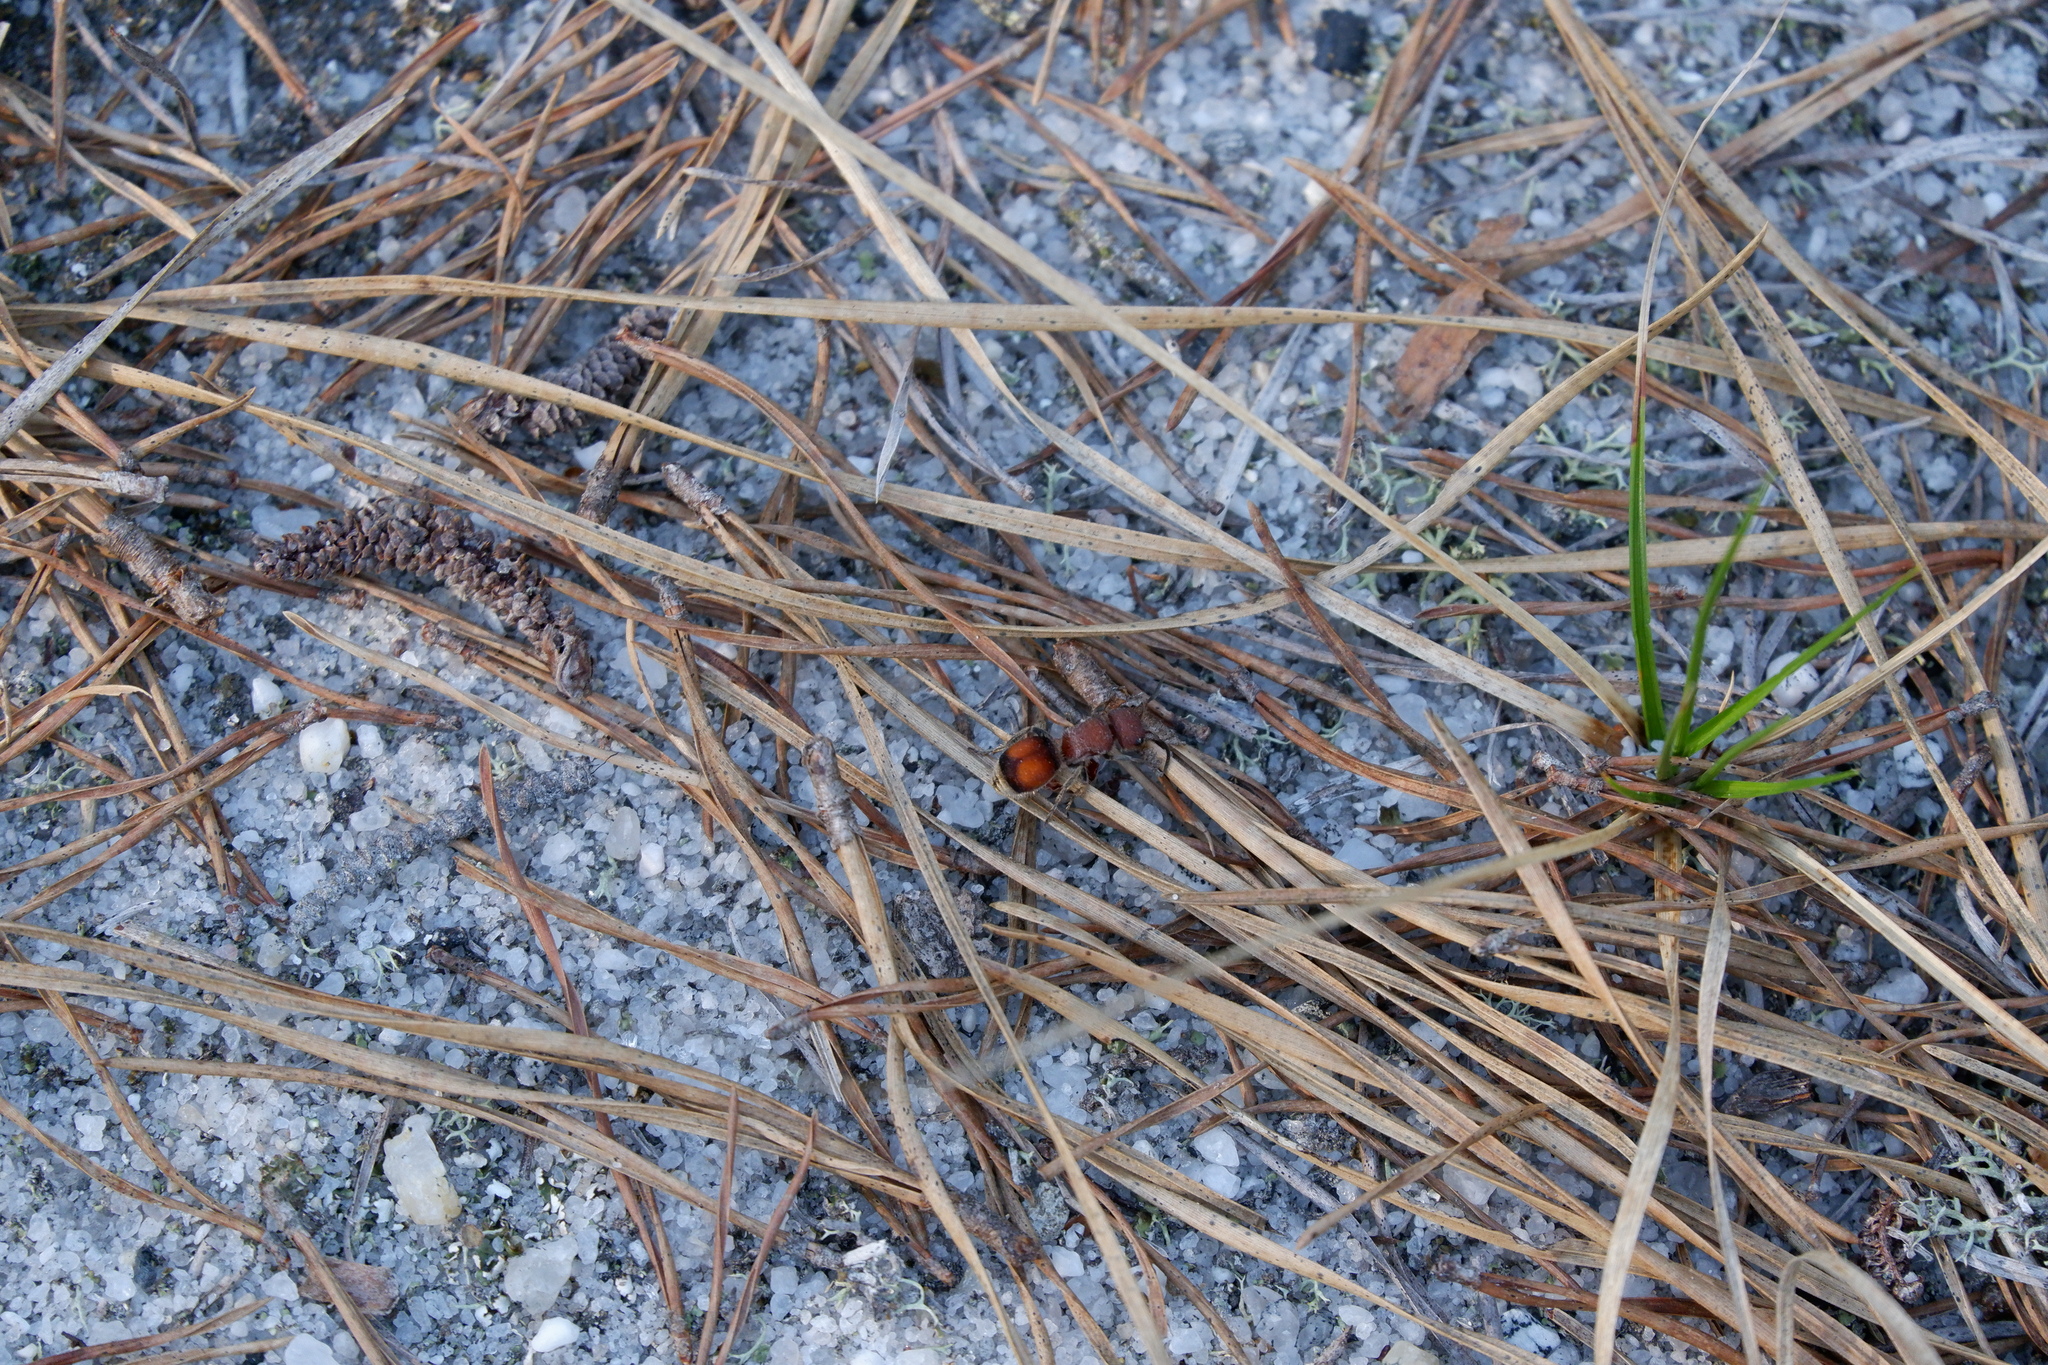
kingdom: Animalia
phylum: Arthropoda
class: Insecta
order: Hymenoptera
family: Mutillidae
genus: Pseudomethoca
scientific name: Pseudomethoca
